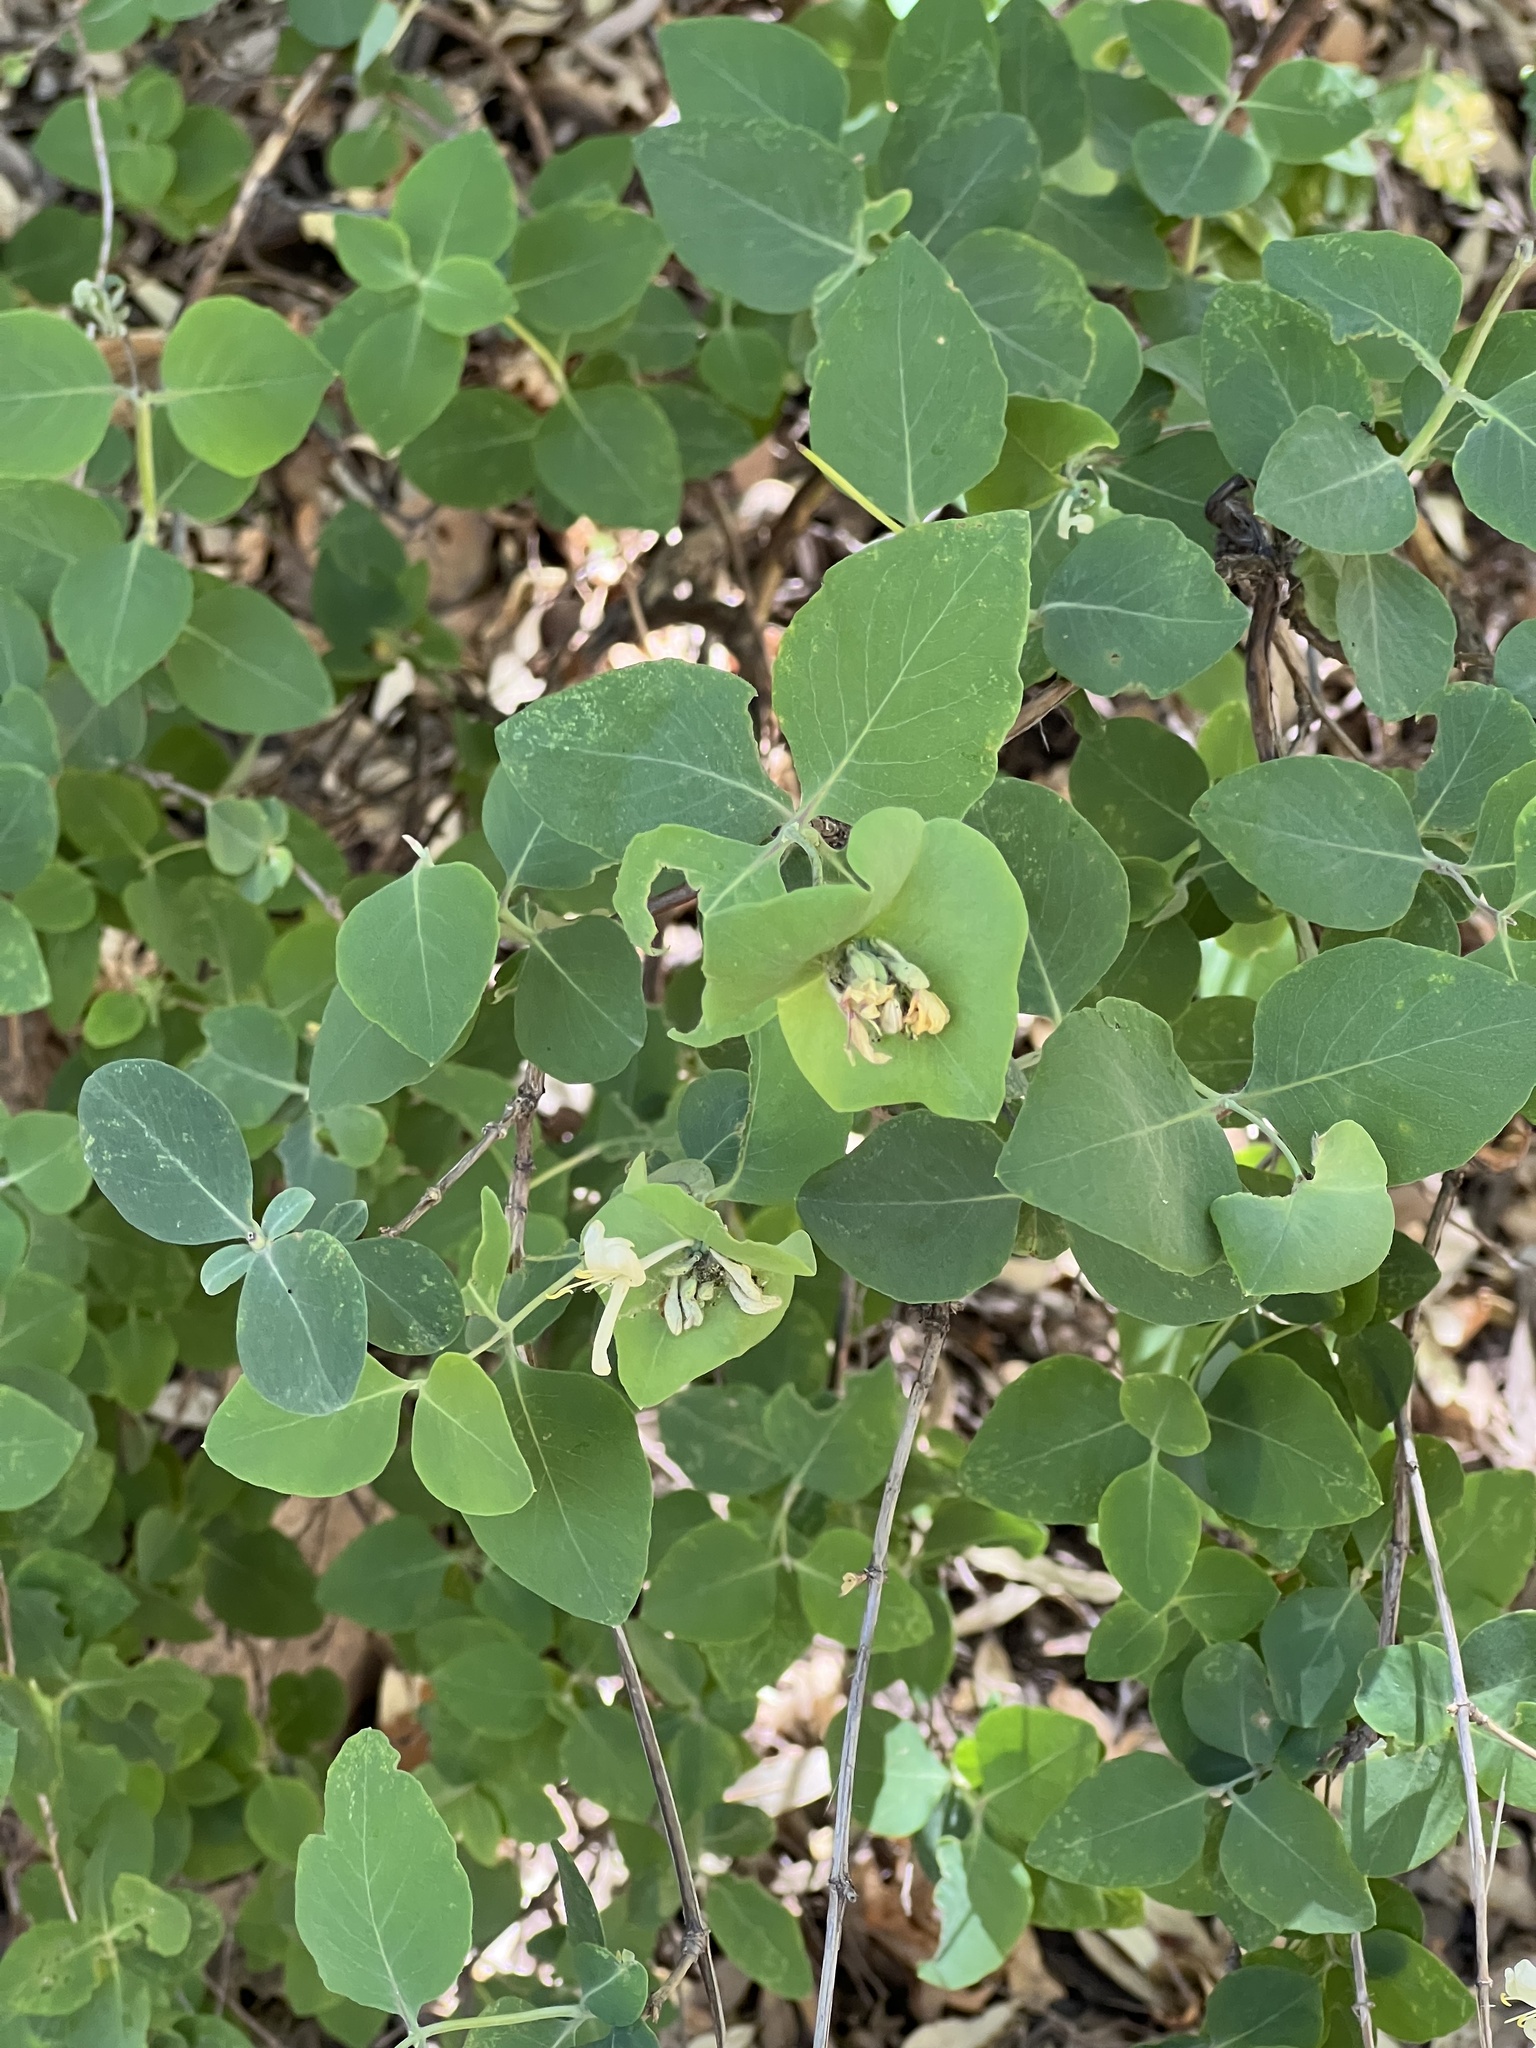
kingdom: Plantae
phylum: Tracheophyta
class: Magnoliopsida
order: Dipsacales
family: Caprifoliaceae
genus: Lonicera
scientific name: Lonicera albiflora
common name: White honeysuckle
